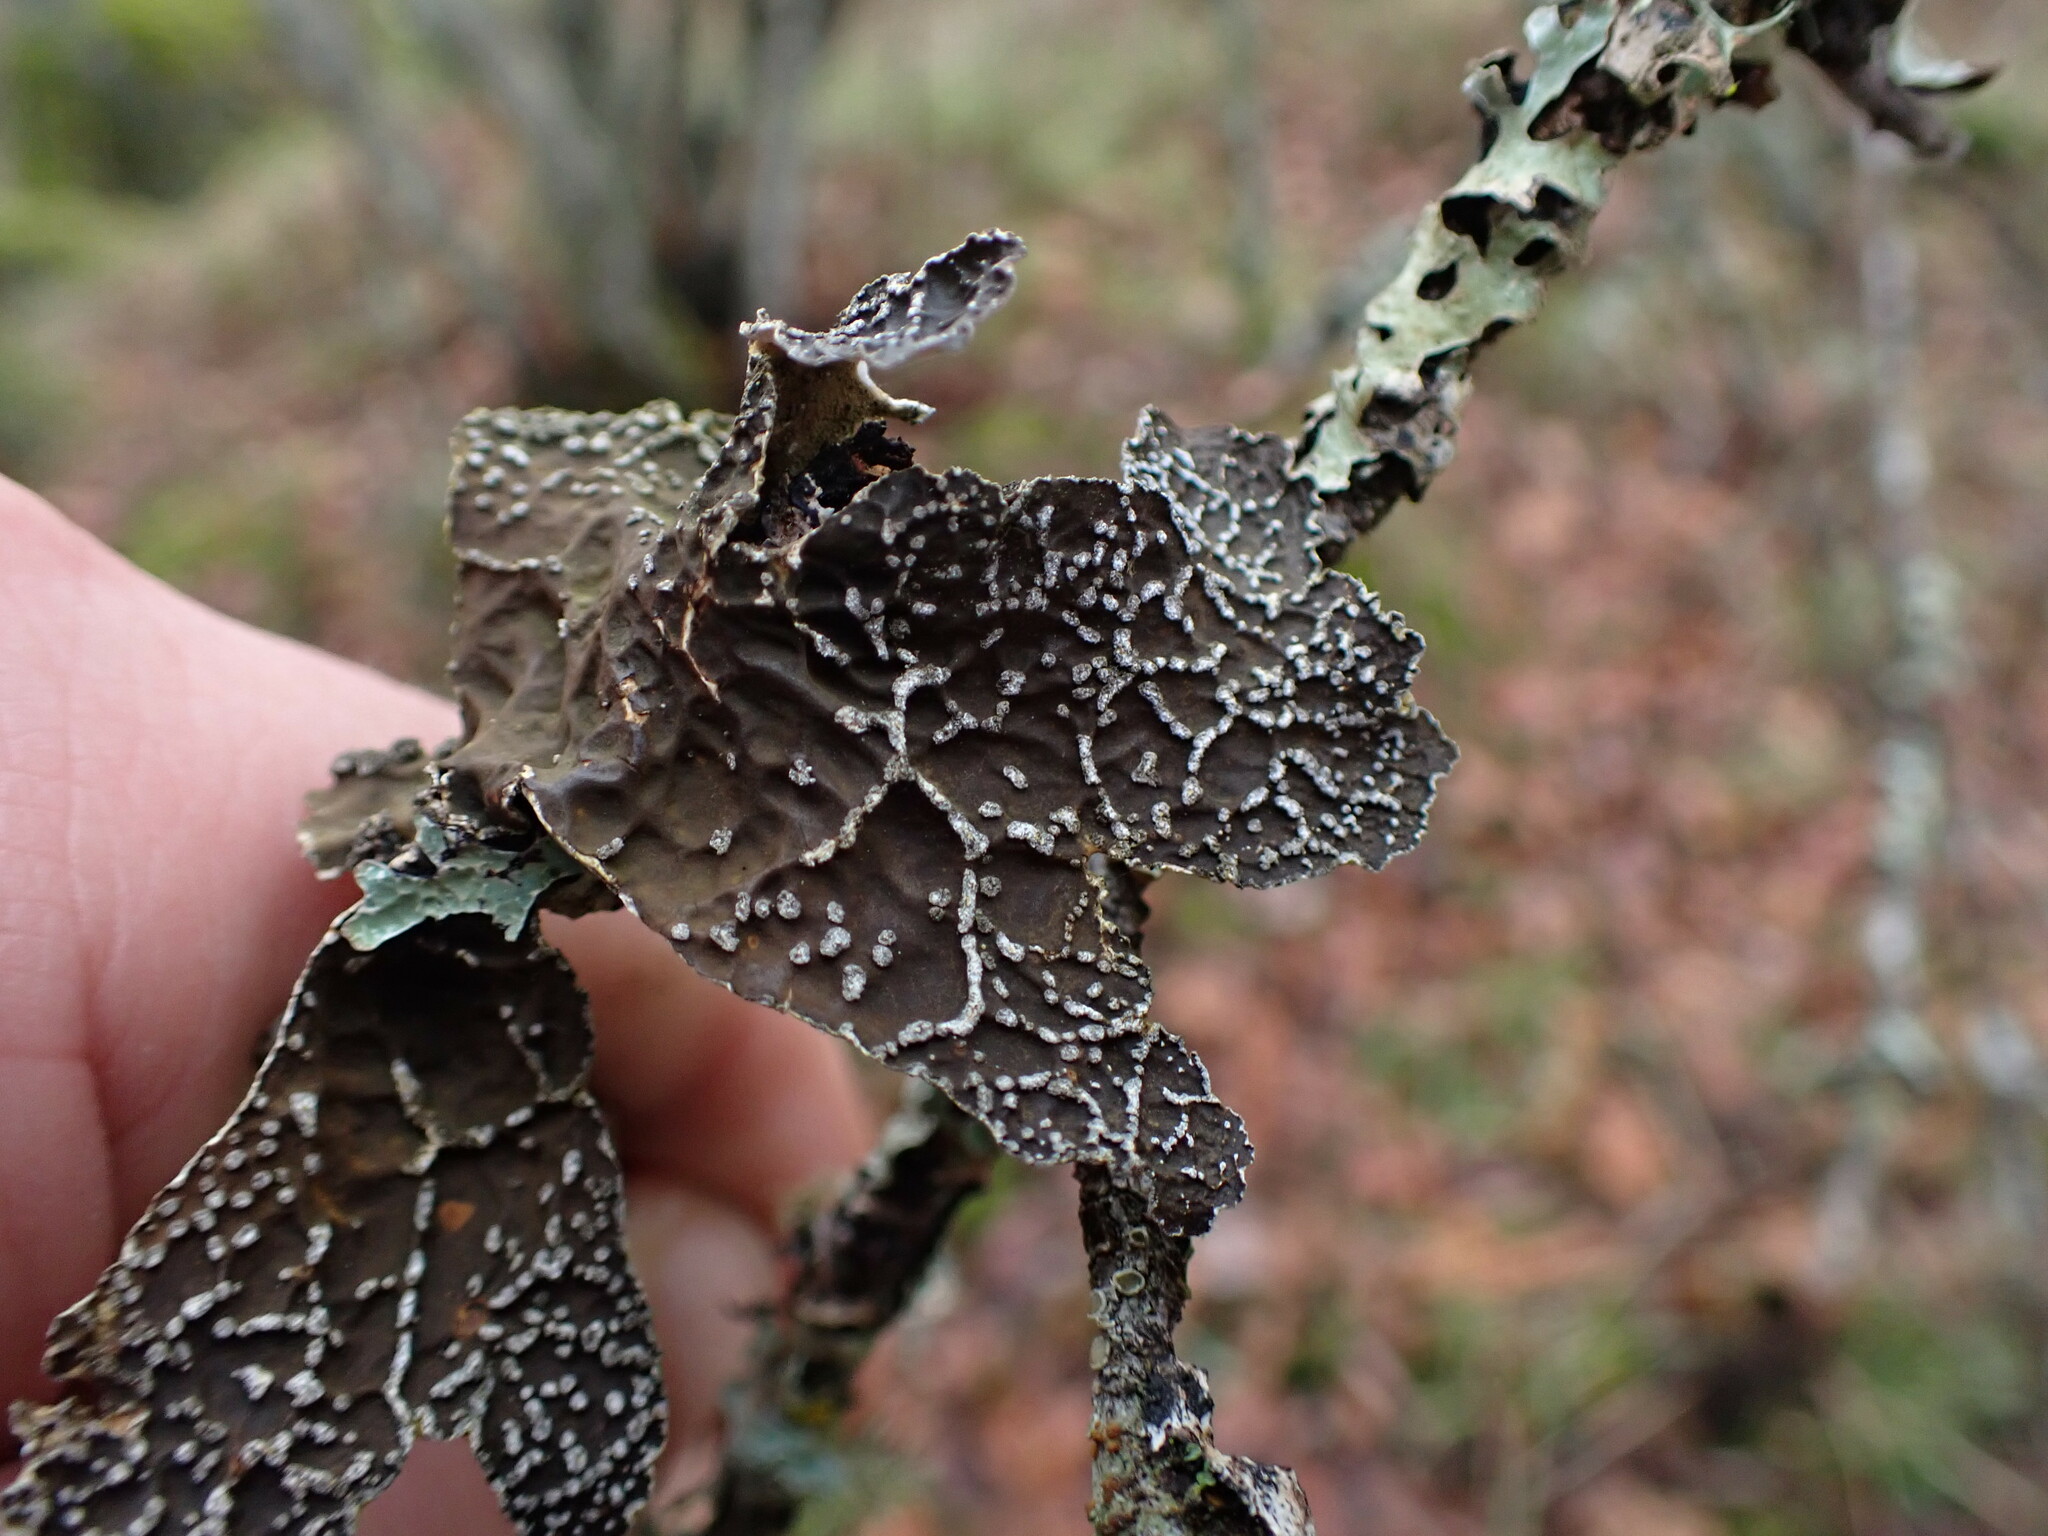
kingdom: Fungi
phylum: Ascomycota
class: Lecanoromycetes
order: Peltigerales
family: Lobariaceae
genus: Lobaria
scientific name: Lobaria anomala
